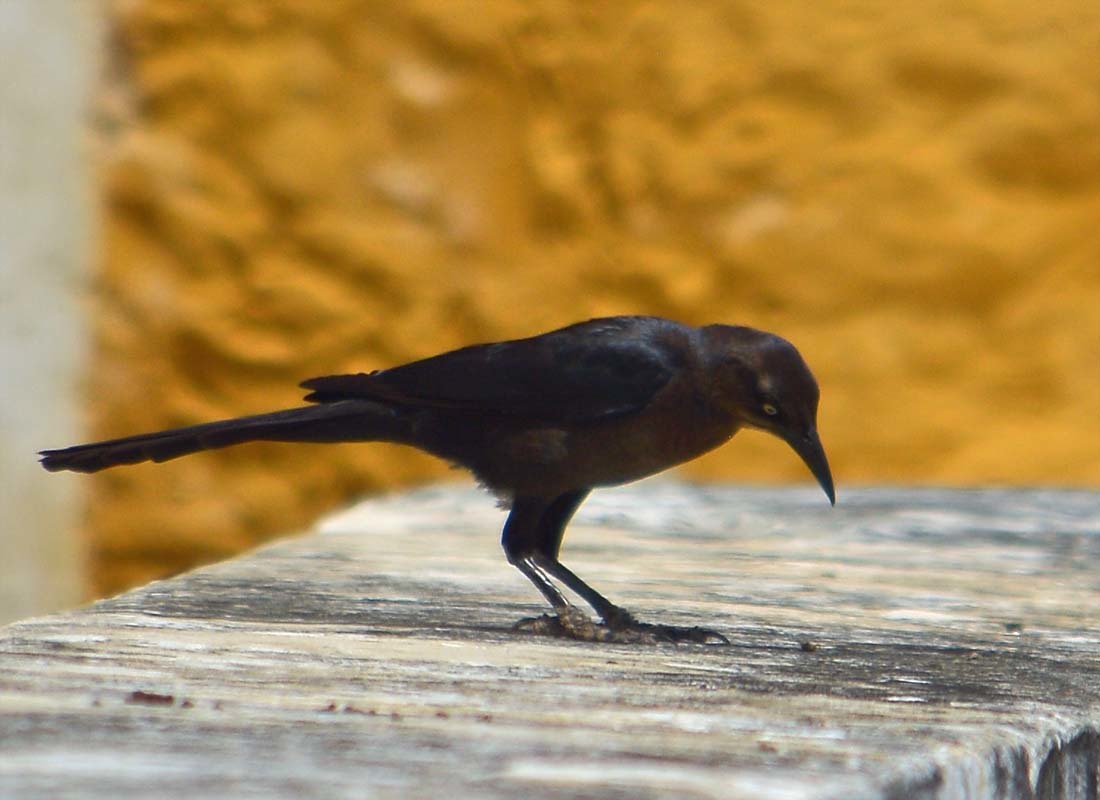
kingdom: Animalia
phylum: Chordata
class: Aves
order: Passeriformes
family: Icteridae
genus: Quiscalus
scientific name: Quiscalus mexicanus
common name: Great-tailed grackle
